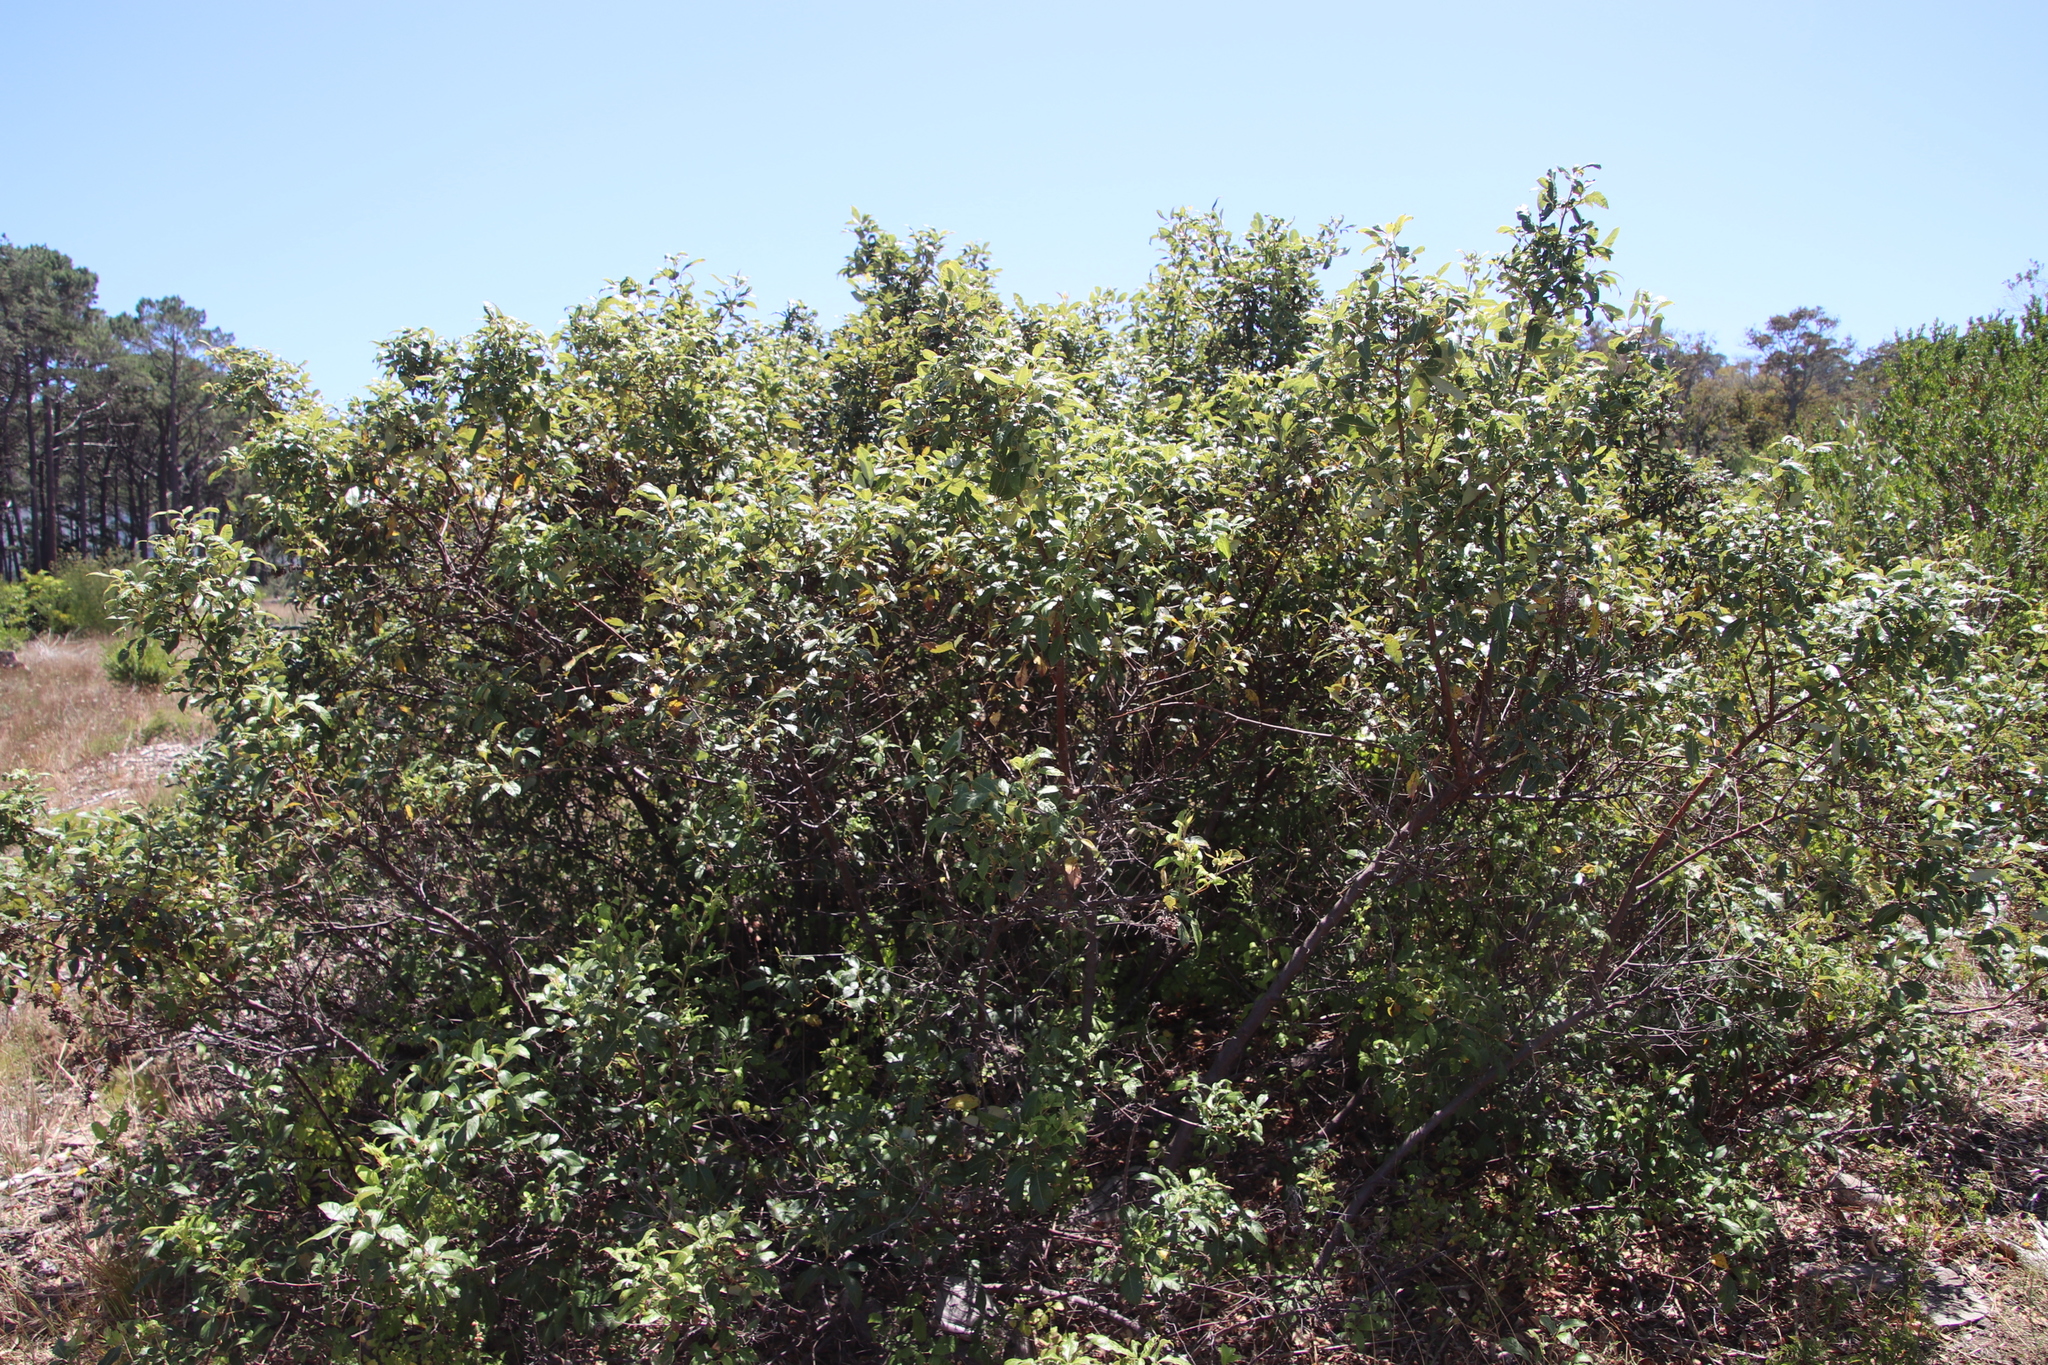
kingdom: Plantae
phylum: Tracheophyta
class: Magnoliopsida
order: Sapindales
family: Anacardiaceae
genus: Searsia
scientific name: Searsia tomentosa
